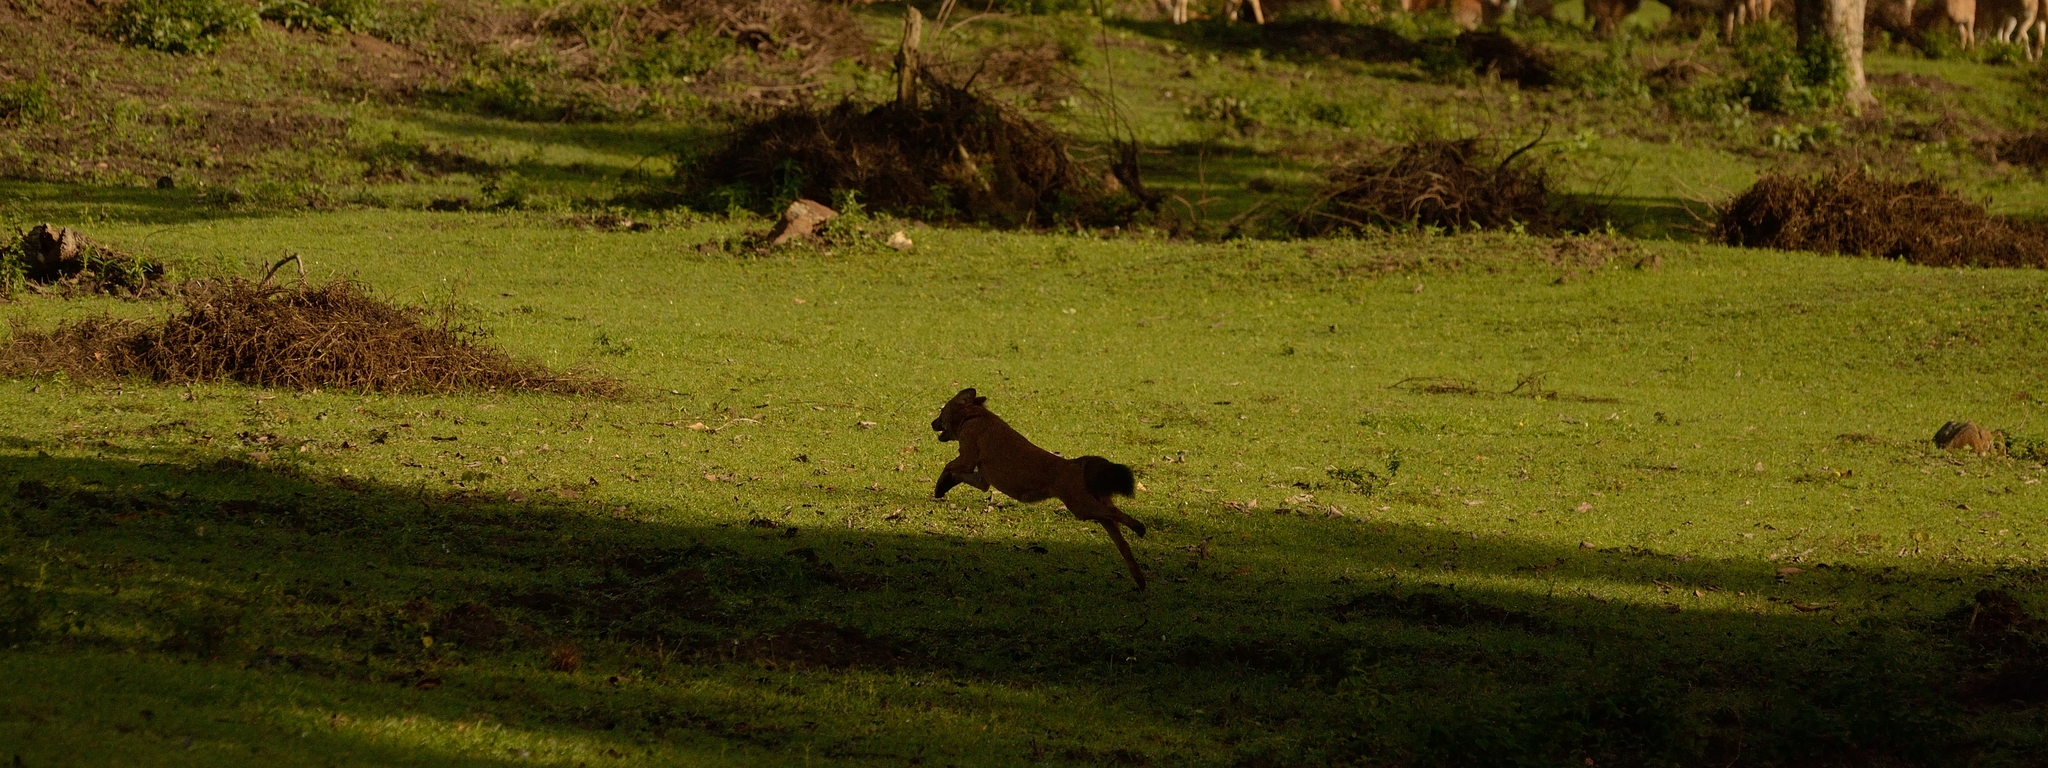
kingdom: Animalia
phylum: Chordata
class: Mammalia
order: Carnivora
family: Canidae
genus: Cuon
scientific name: Cuon alpinus
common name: Dhole
